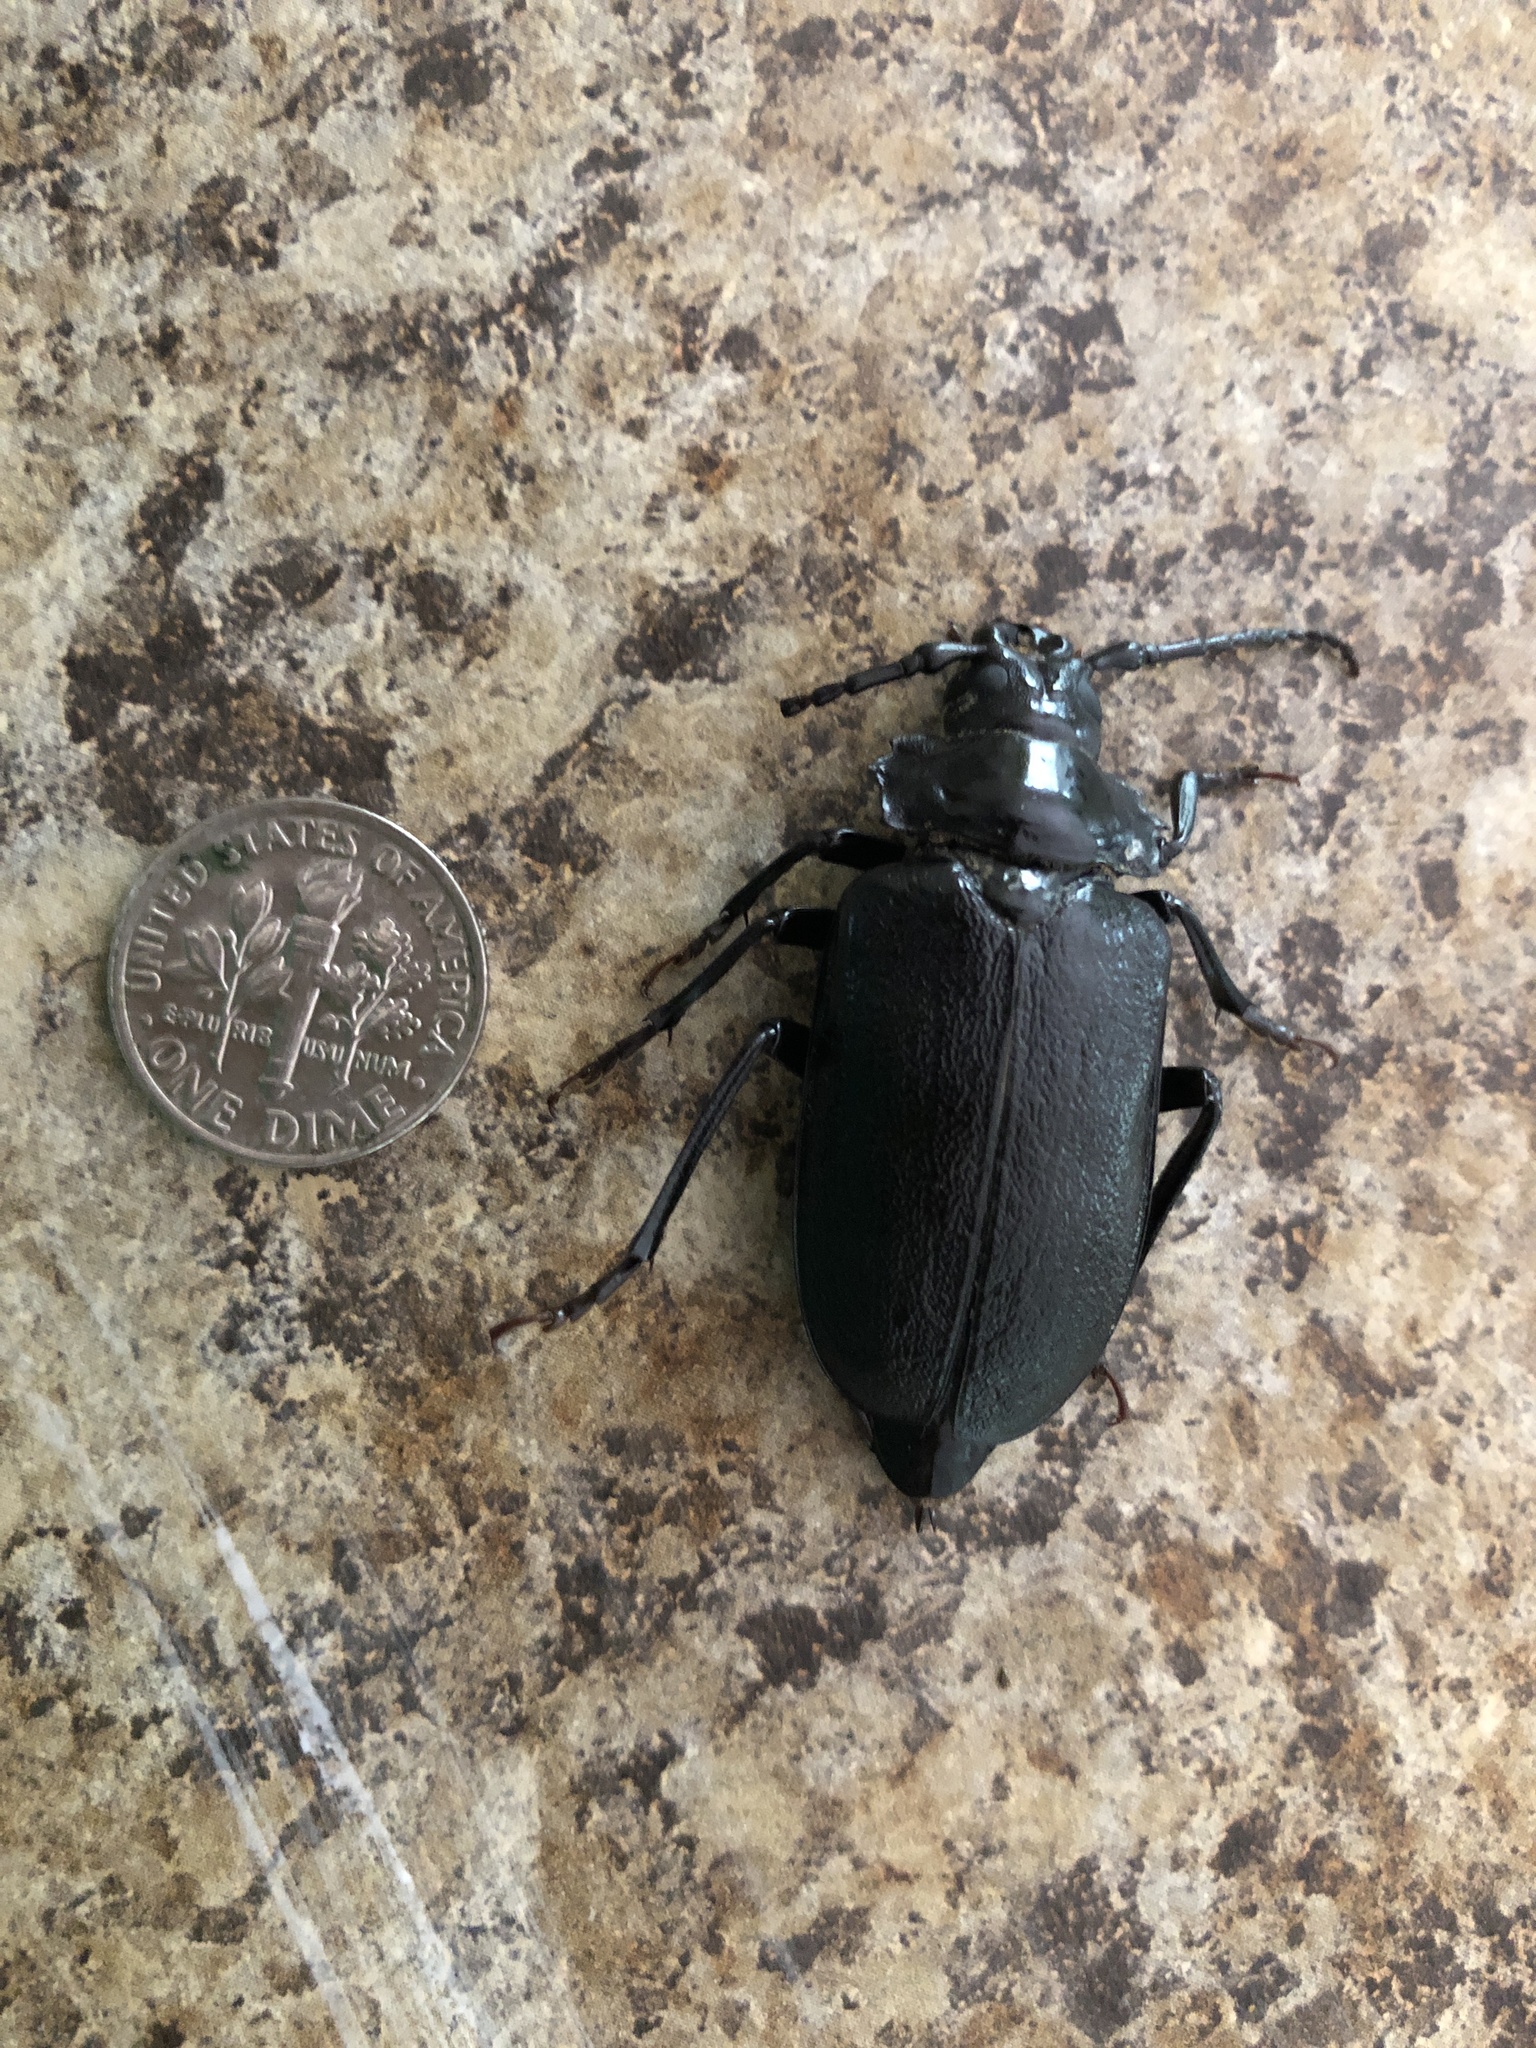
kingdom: Animalia
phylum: Arthropoda
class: Insecta
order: Coleoptera
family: Cerambycidae
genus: Prionus
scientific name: Prionus laticollis
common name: Broad necked prionus
